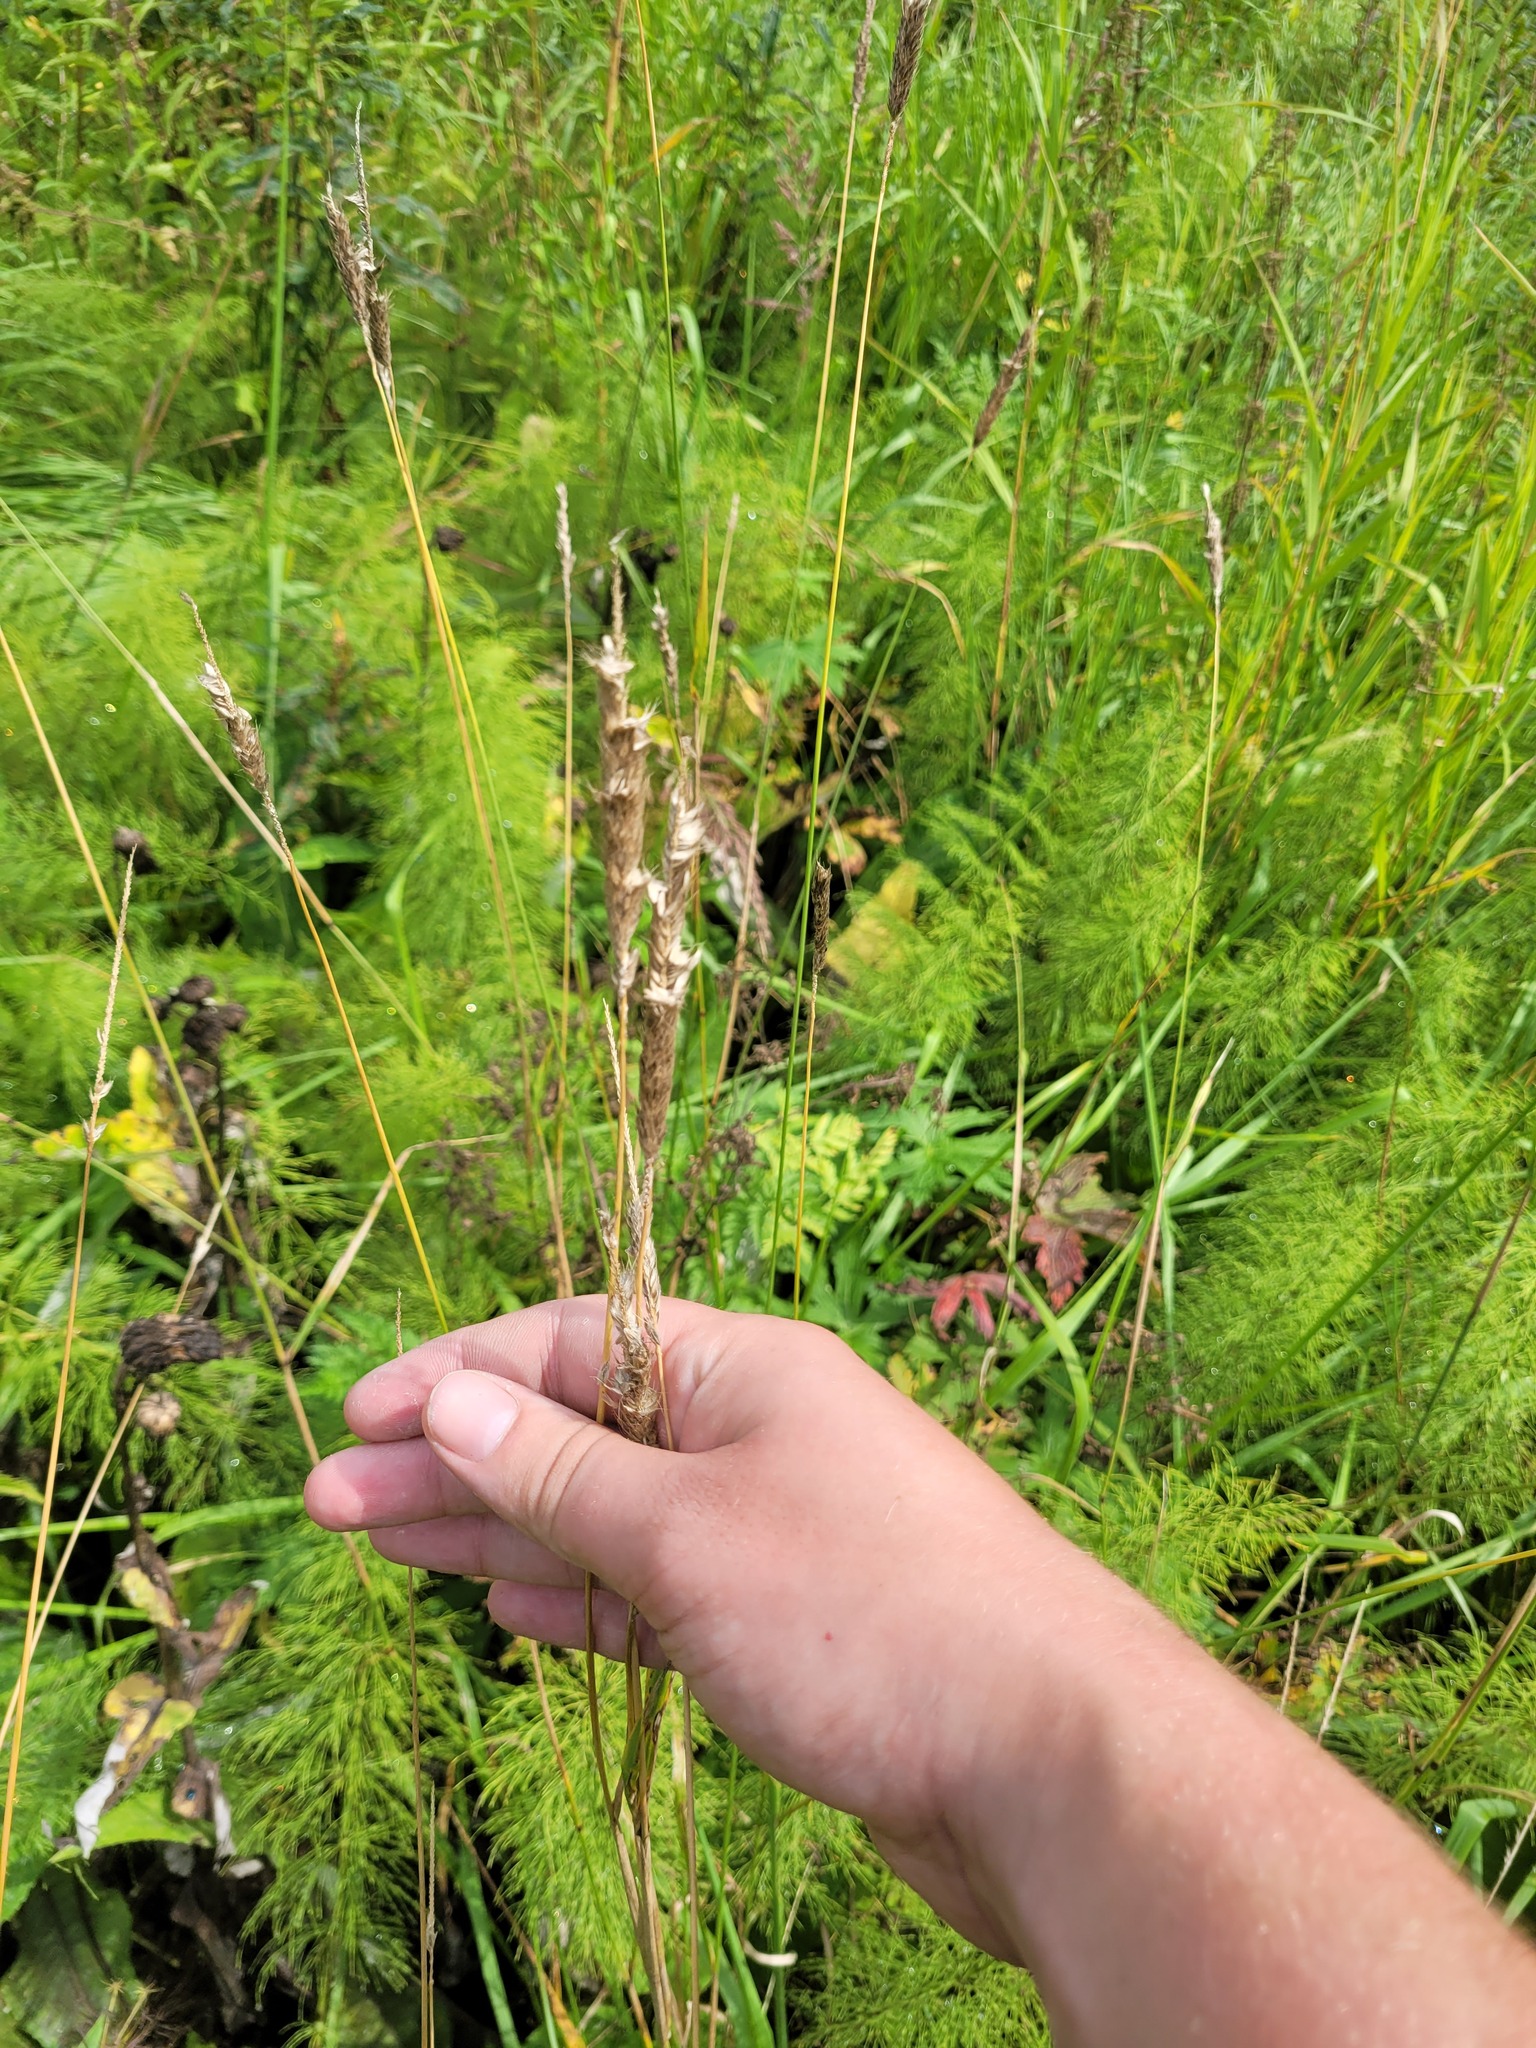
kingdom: Plantae
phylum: Tracheophyta
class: Liliopsida
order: Poales
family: Poaceae
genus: Alopecurus
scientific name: Alopecurus pratensis
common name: Meadow foxtail
